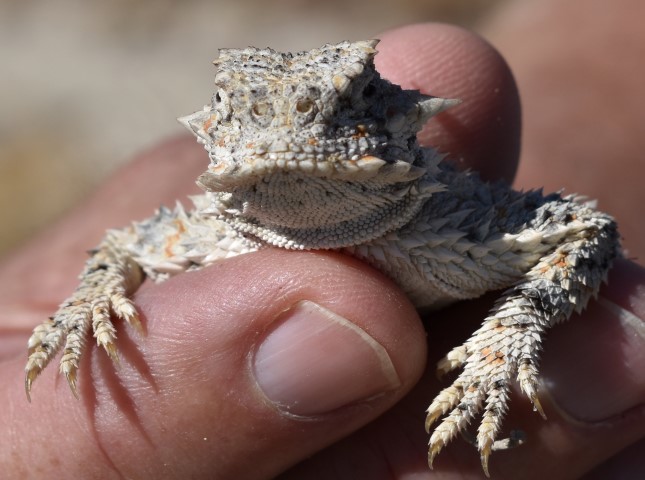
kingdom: Animalia
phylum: Chordata
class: Squamata
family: Phrynosomatidae
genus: Phrynosoma
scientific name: Phrynosoma platyrhinos
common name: Desert horned lizard
